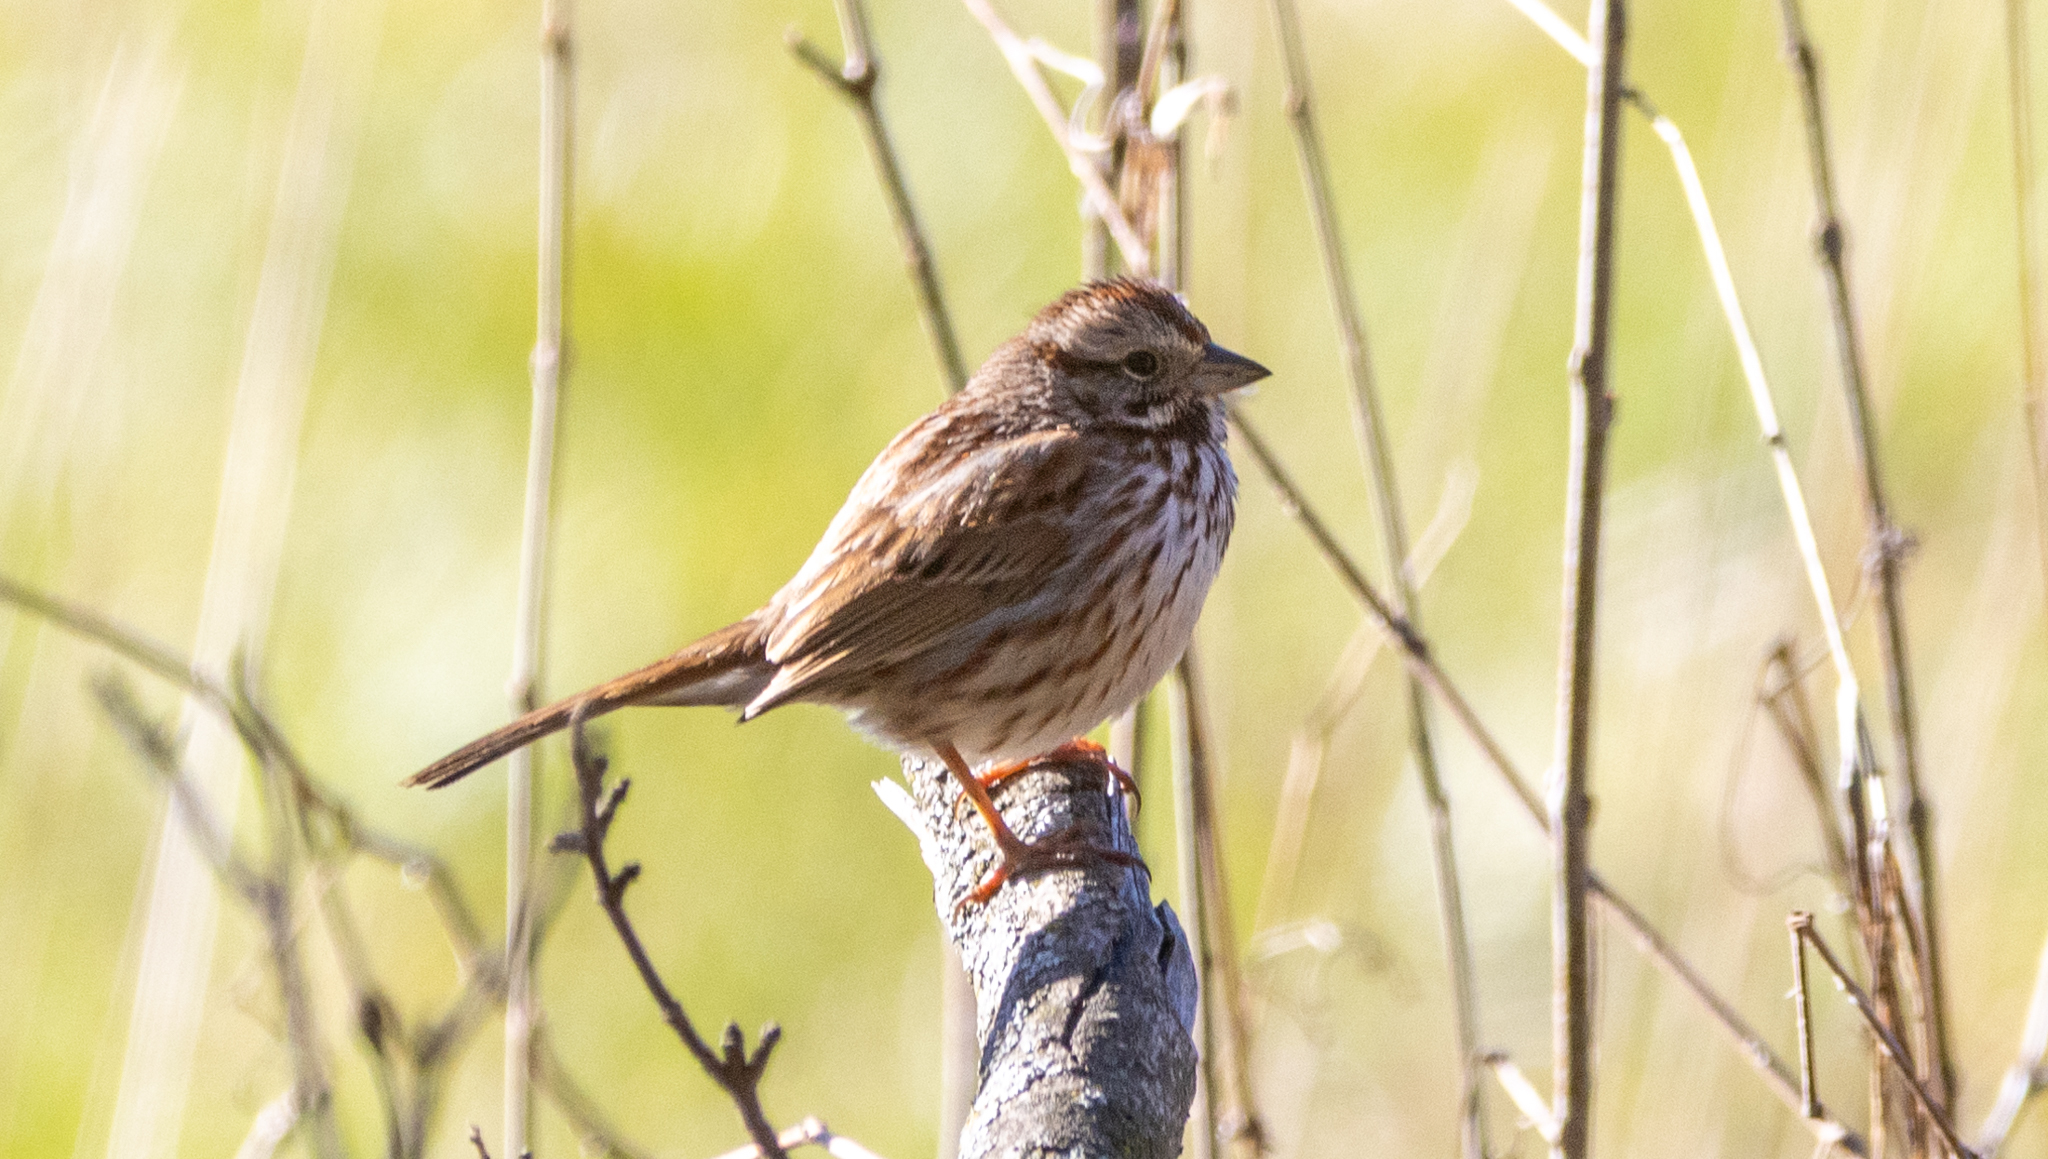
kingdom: Animalia
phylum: Chordata
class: Aves
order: Passeriformes
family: Passerellidae
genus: Melospiza
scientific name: Melospiza melodia
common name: Song sparrow
